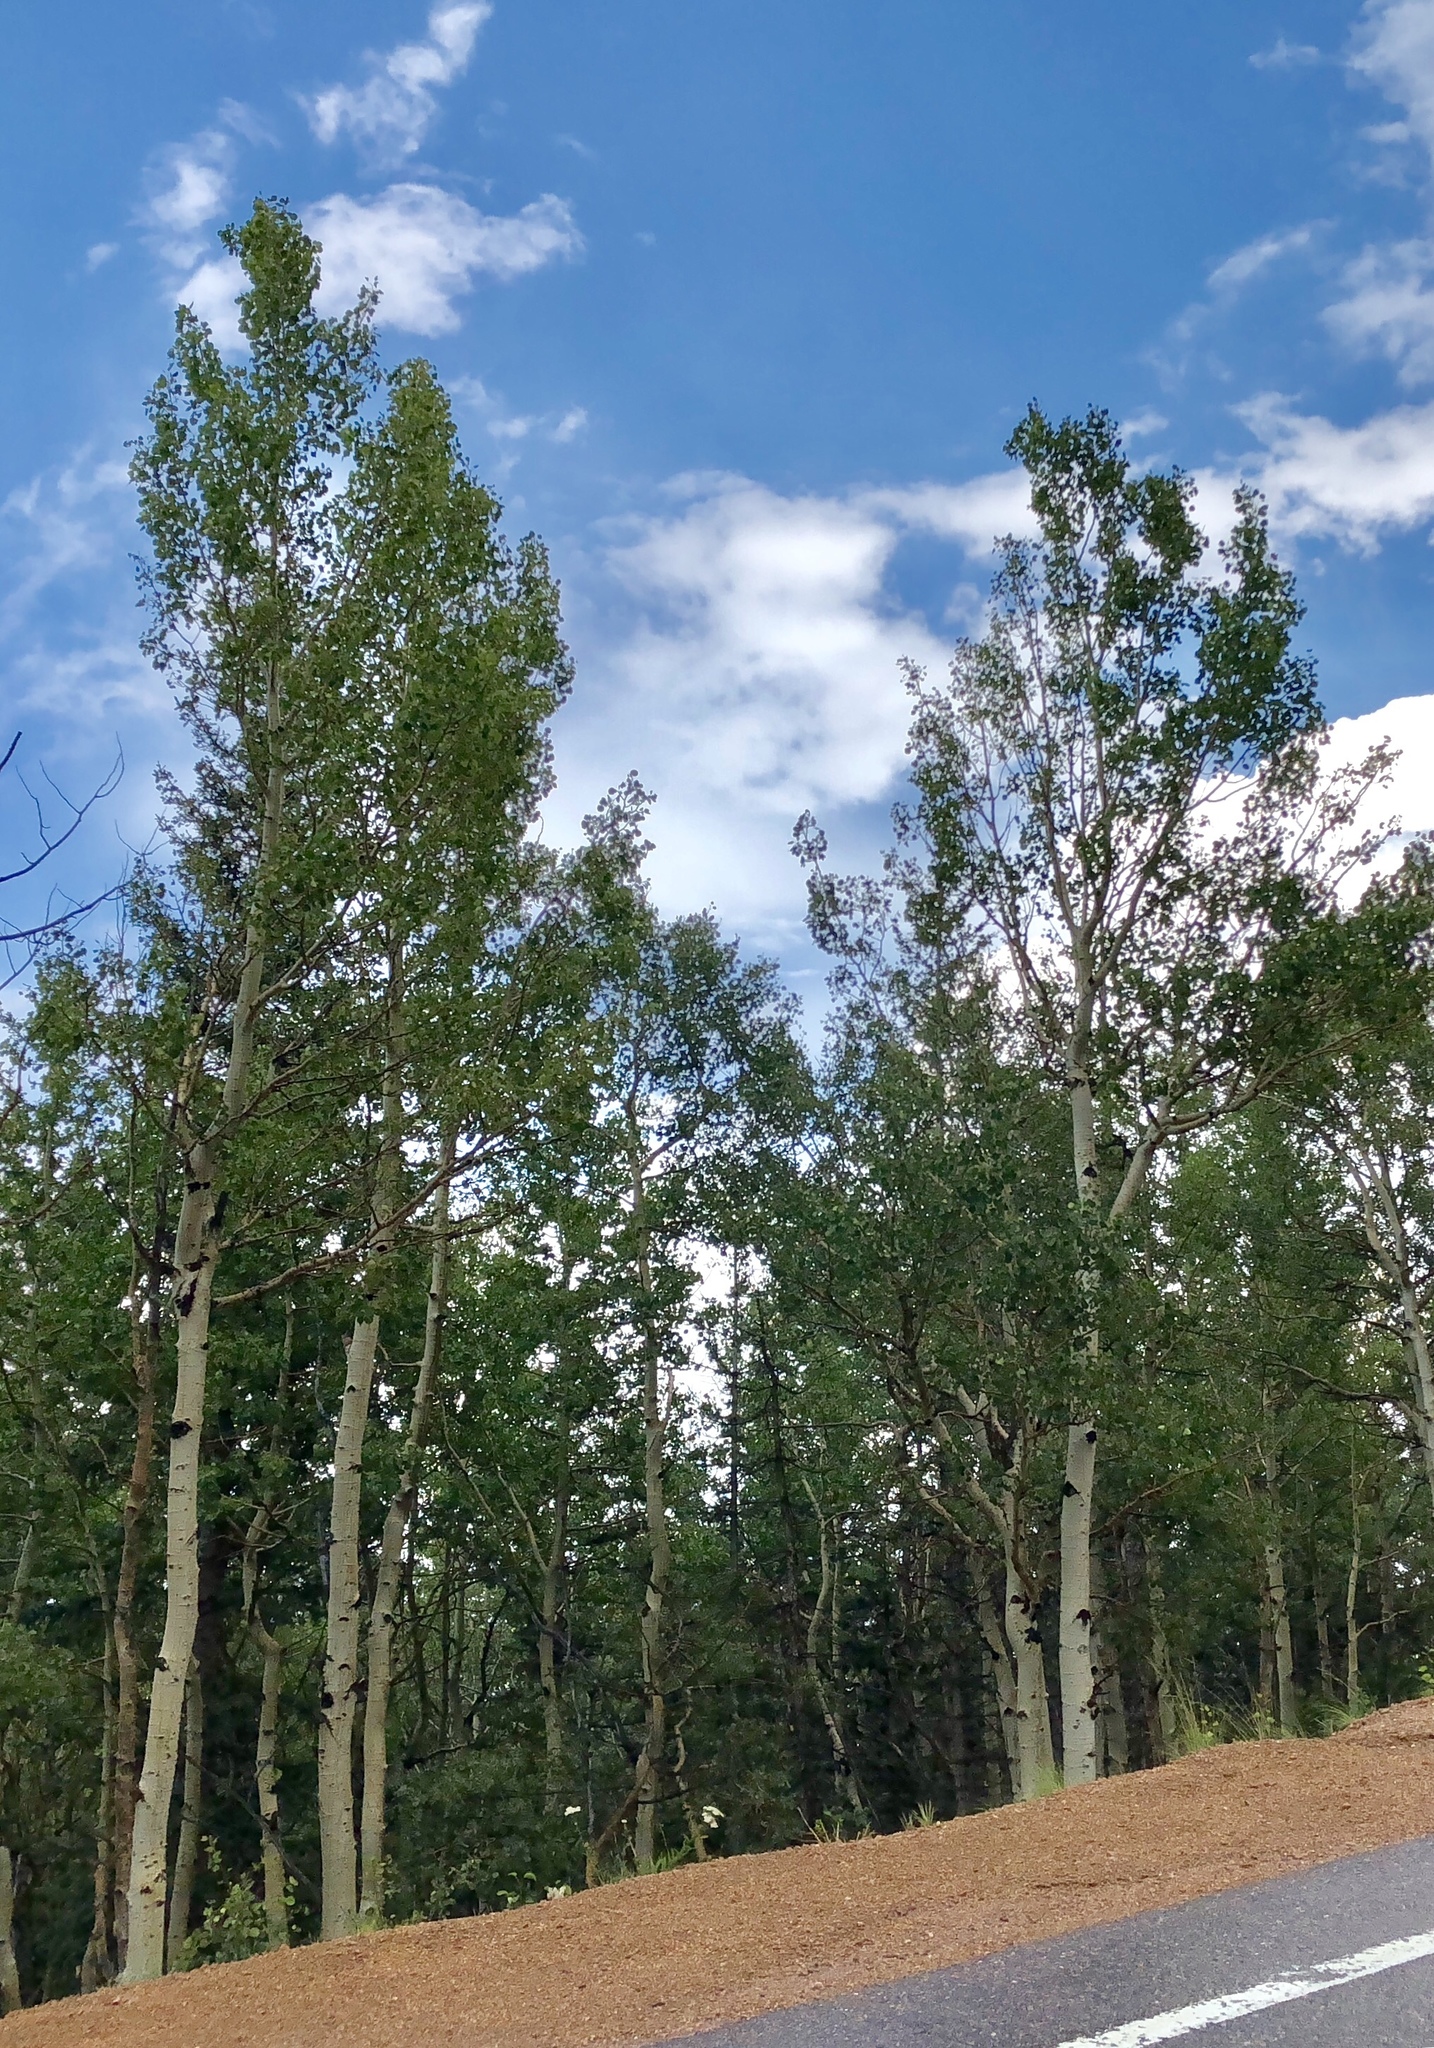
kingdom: Plantae
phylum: Tracheophyta
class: Magnoliopsida
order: Malpighiales
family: Salicaceae
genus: Populus
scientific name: Populus tremuloides
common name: Quaking aspen
